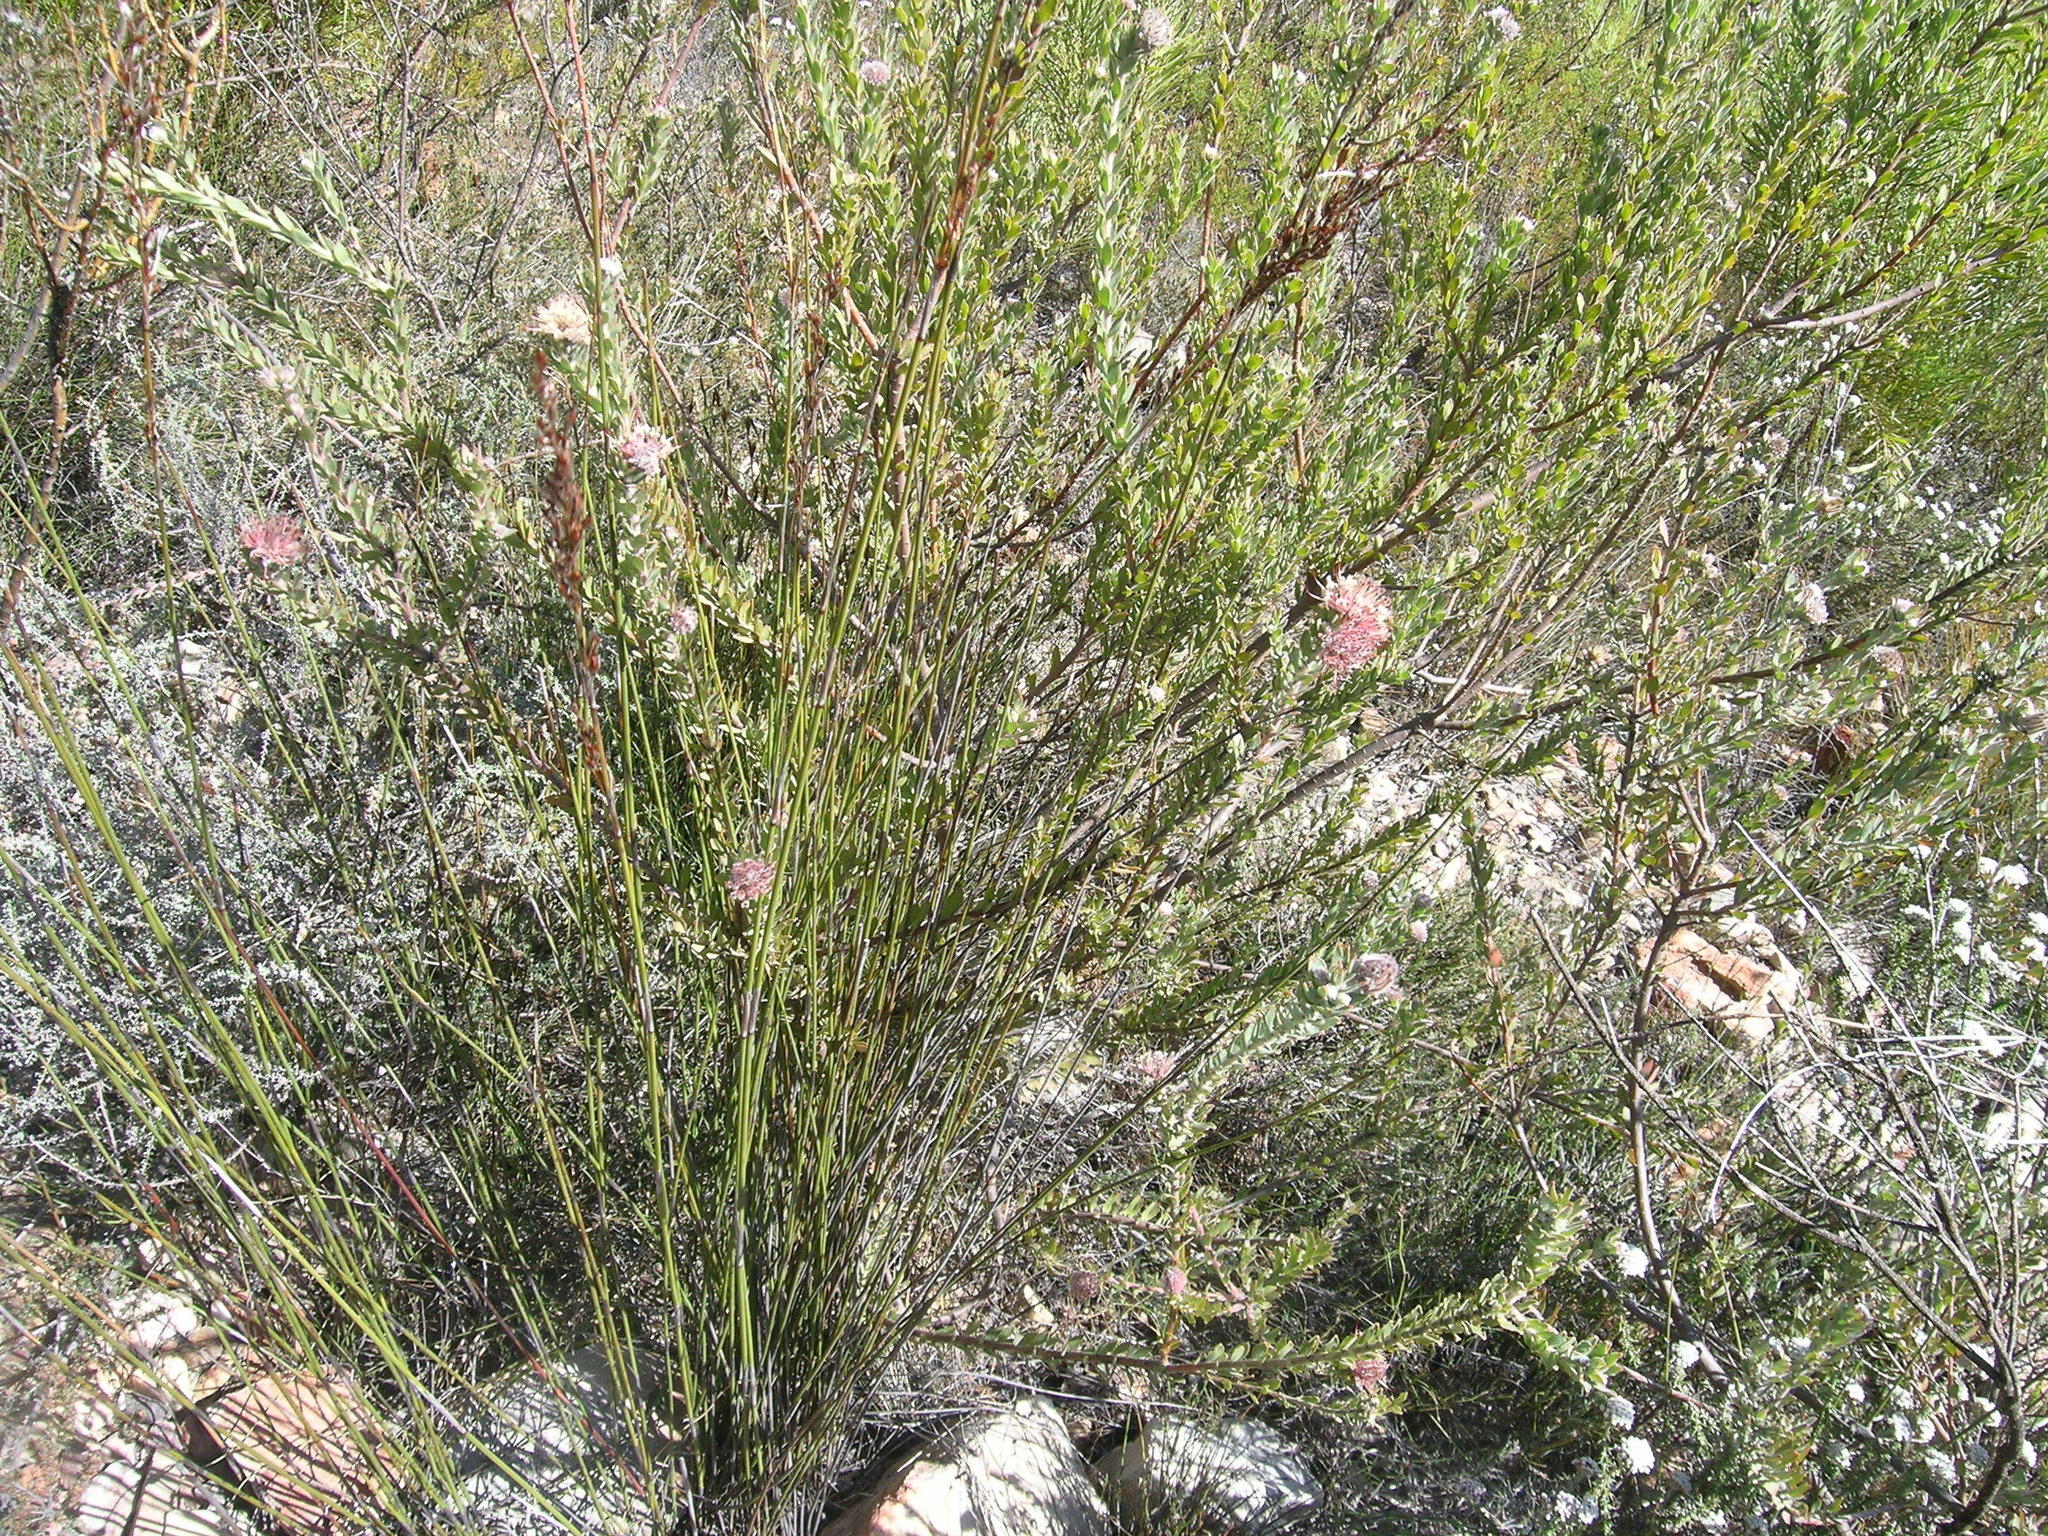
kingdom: Plantae
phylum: Tracheophyta
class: Magnoliopsida
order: Proteales
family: Proteaceae
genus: Leucospermum
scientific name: Leucospermum calligerum
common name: Arid pincushion
